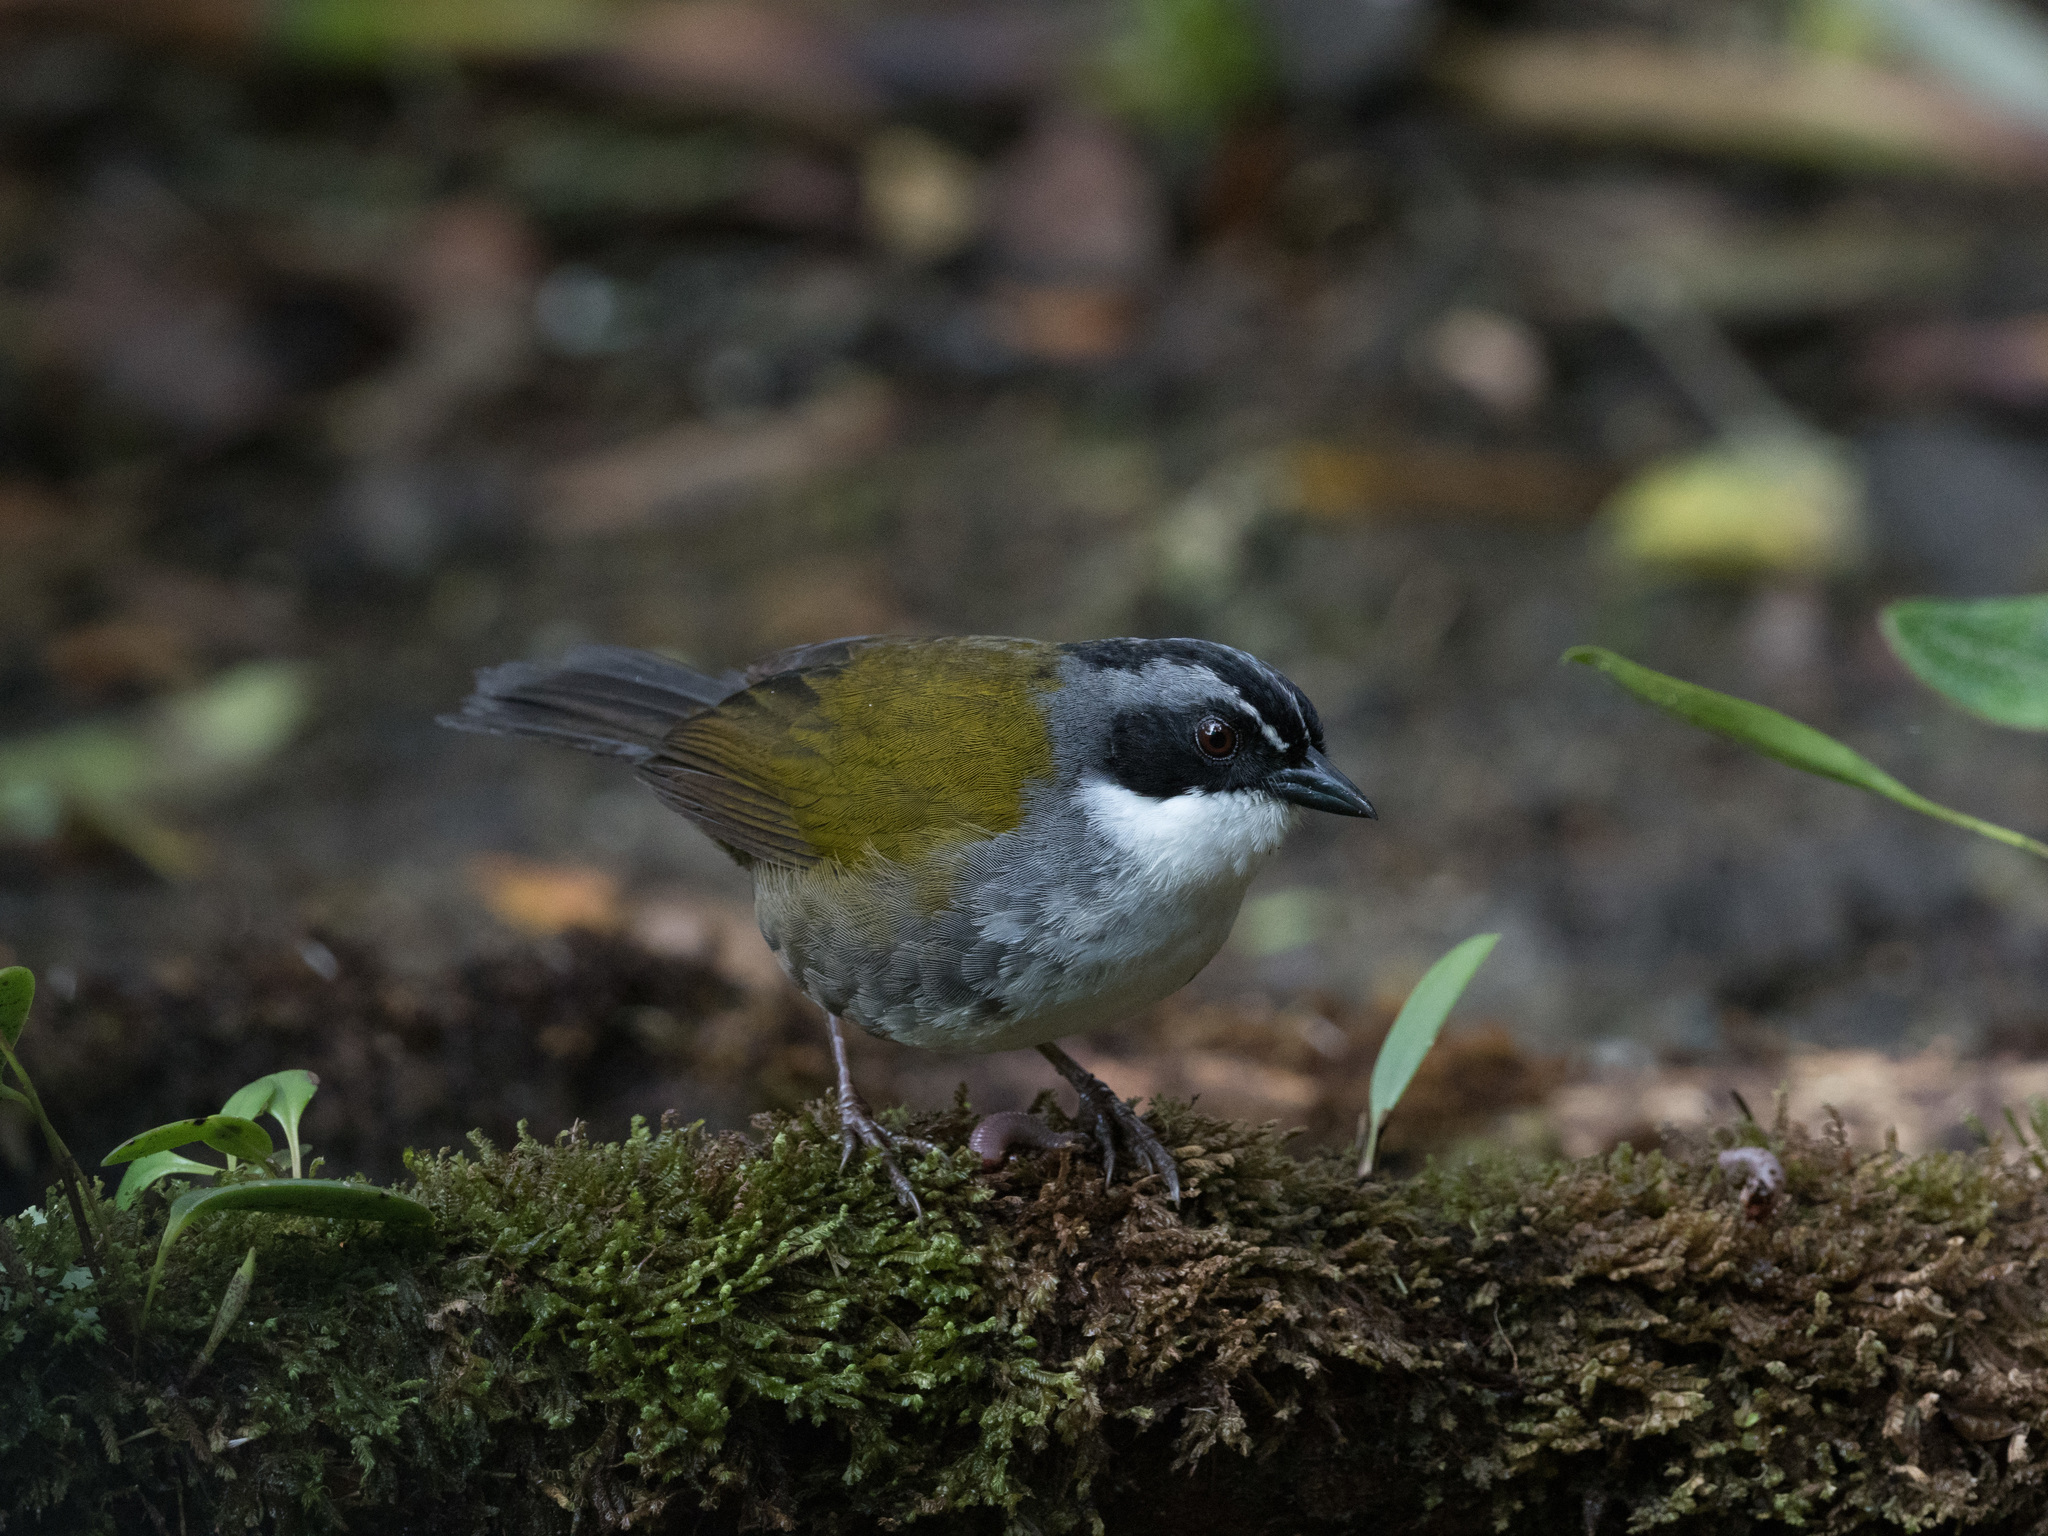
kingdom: Animalia
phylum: Chordata
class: Aves
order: Passeriformes
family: Passerellidae
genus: Arremon
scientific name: Arremon assimilis
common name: Grey-browed brushfinch
